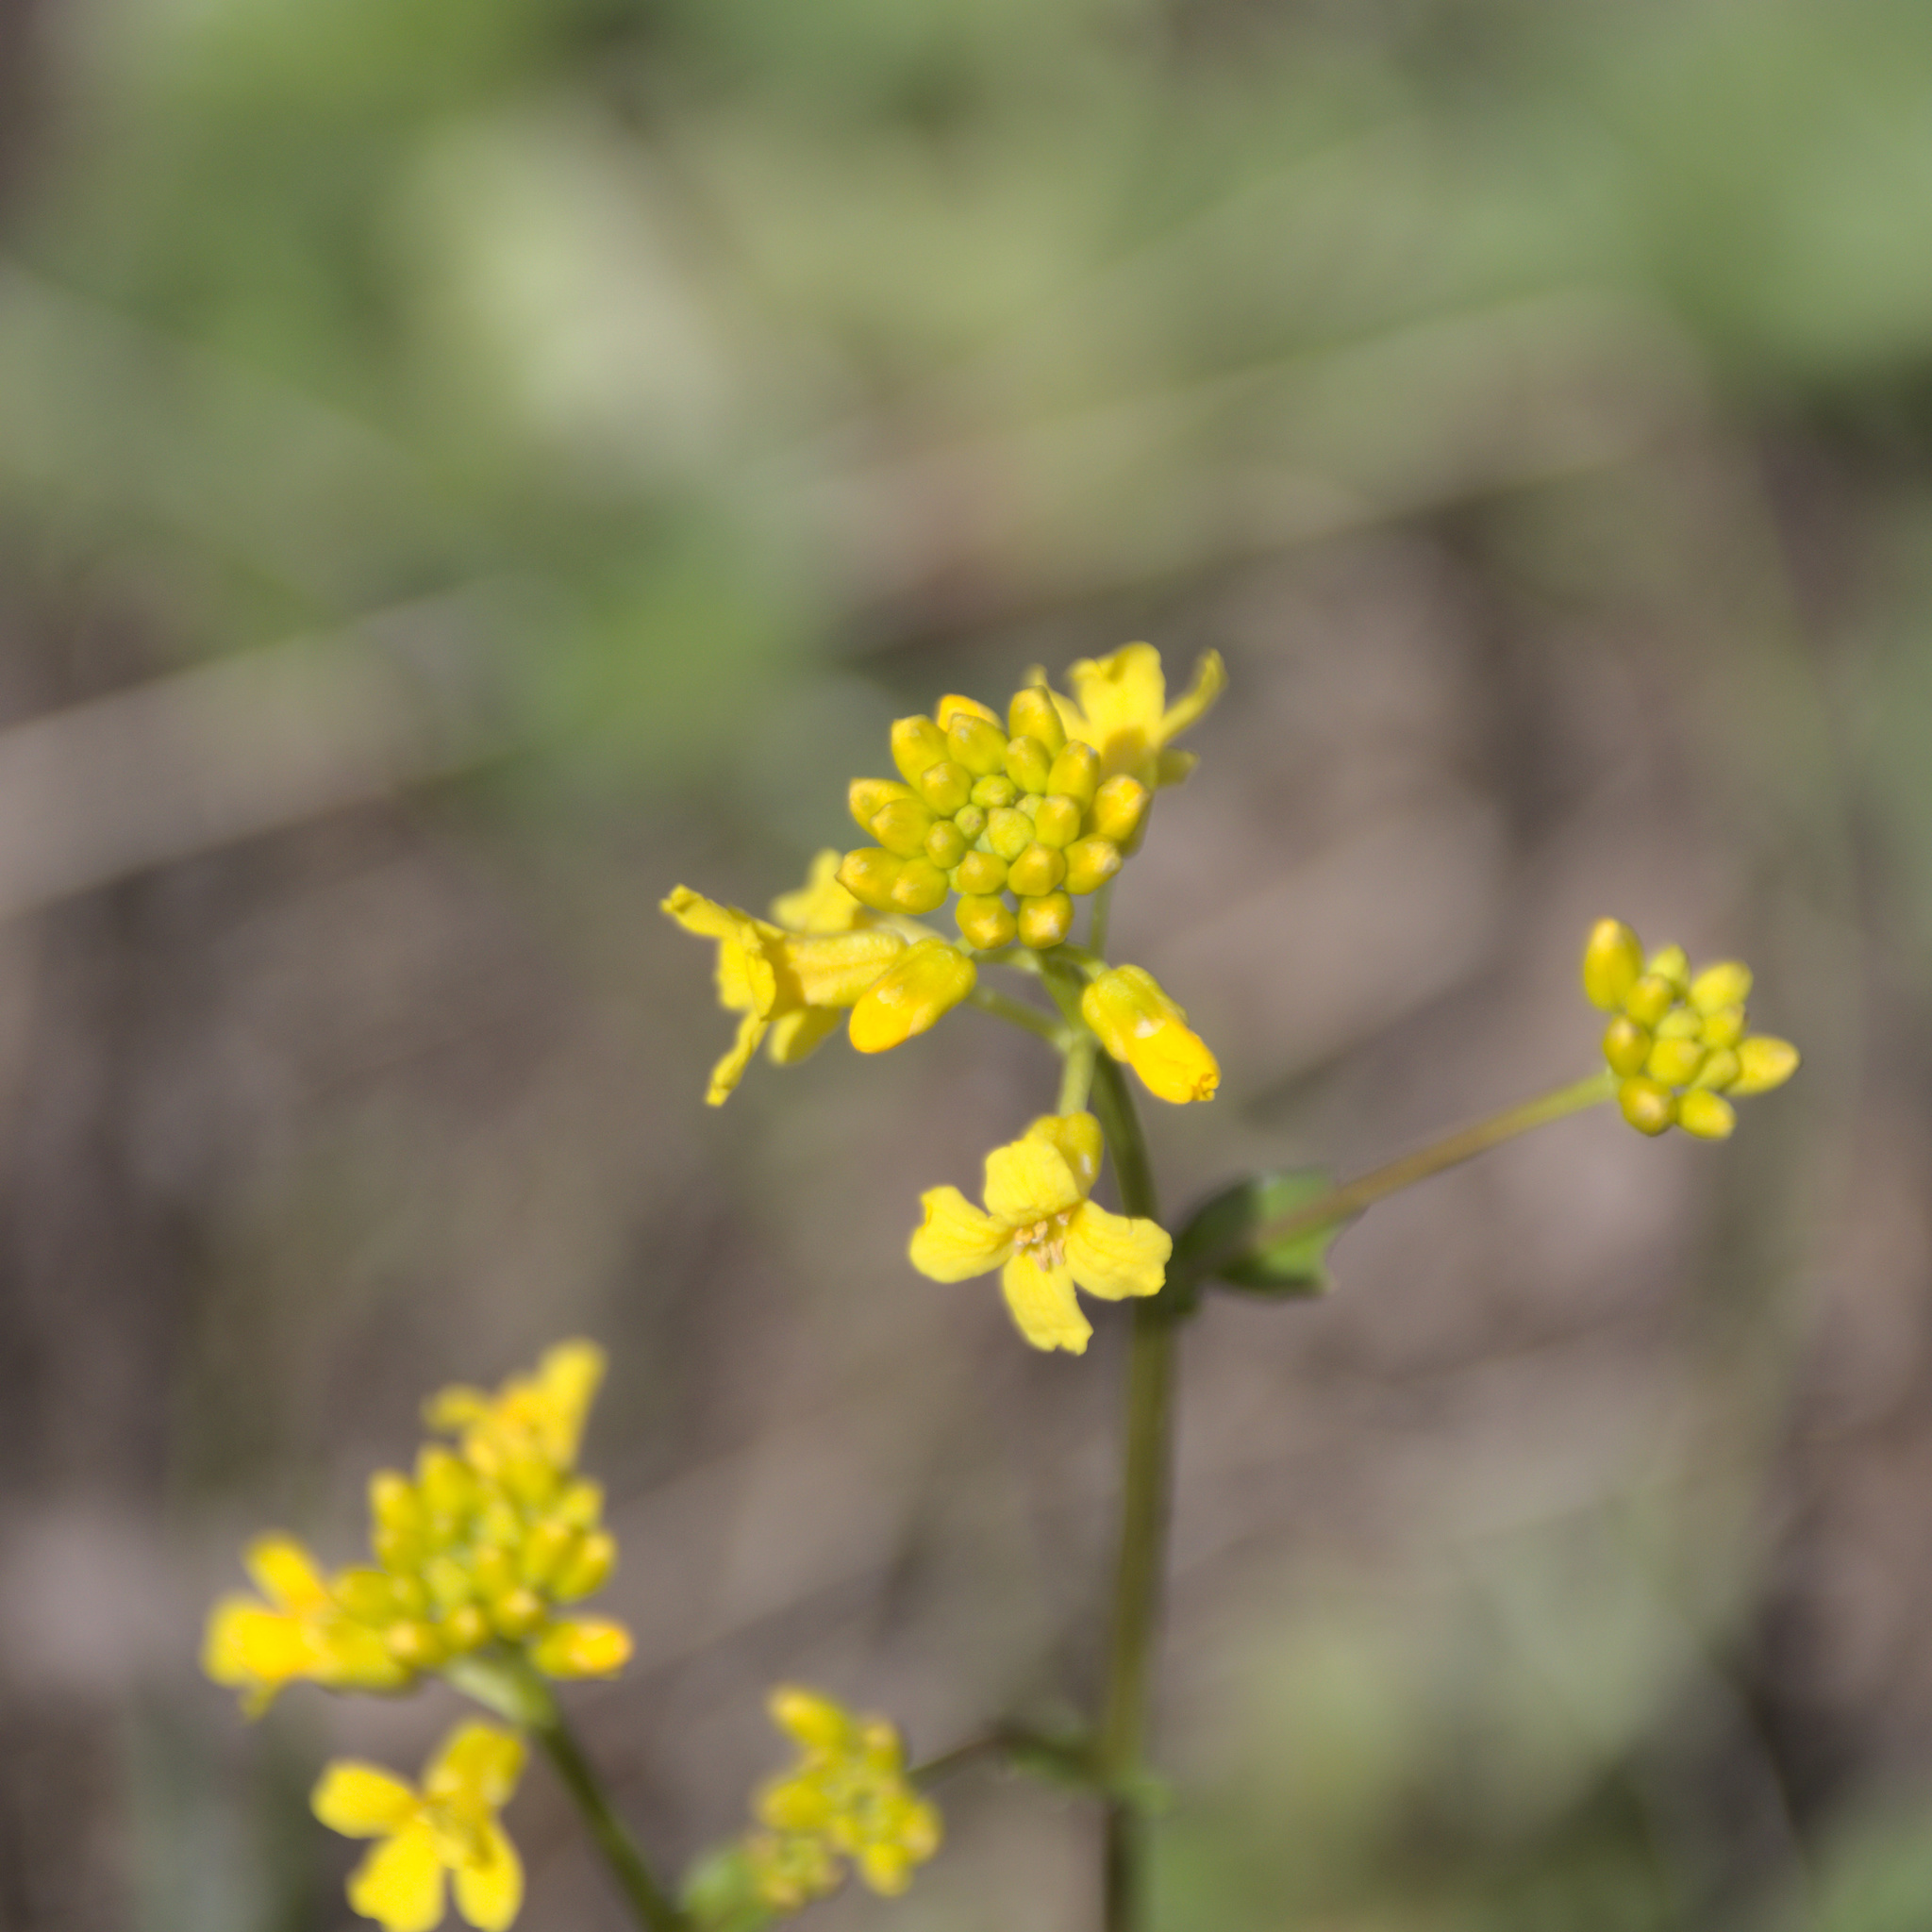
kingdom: Plantae
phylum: Tracheophyta
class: Magnoliopsida
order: Brassicales
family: Brassicaceae
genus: Barbarea
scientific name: Barbarea vulgaris
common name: Cressy-greens
